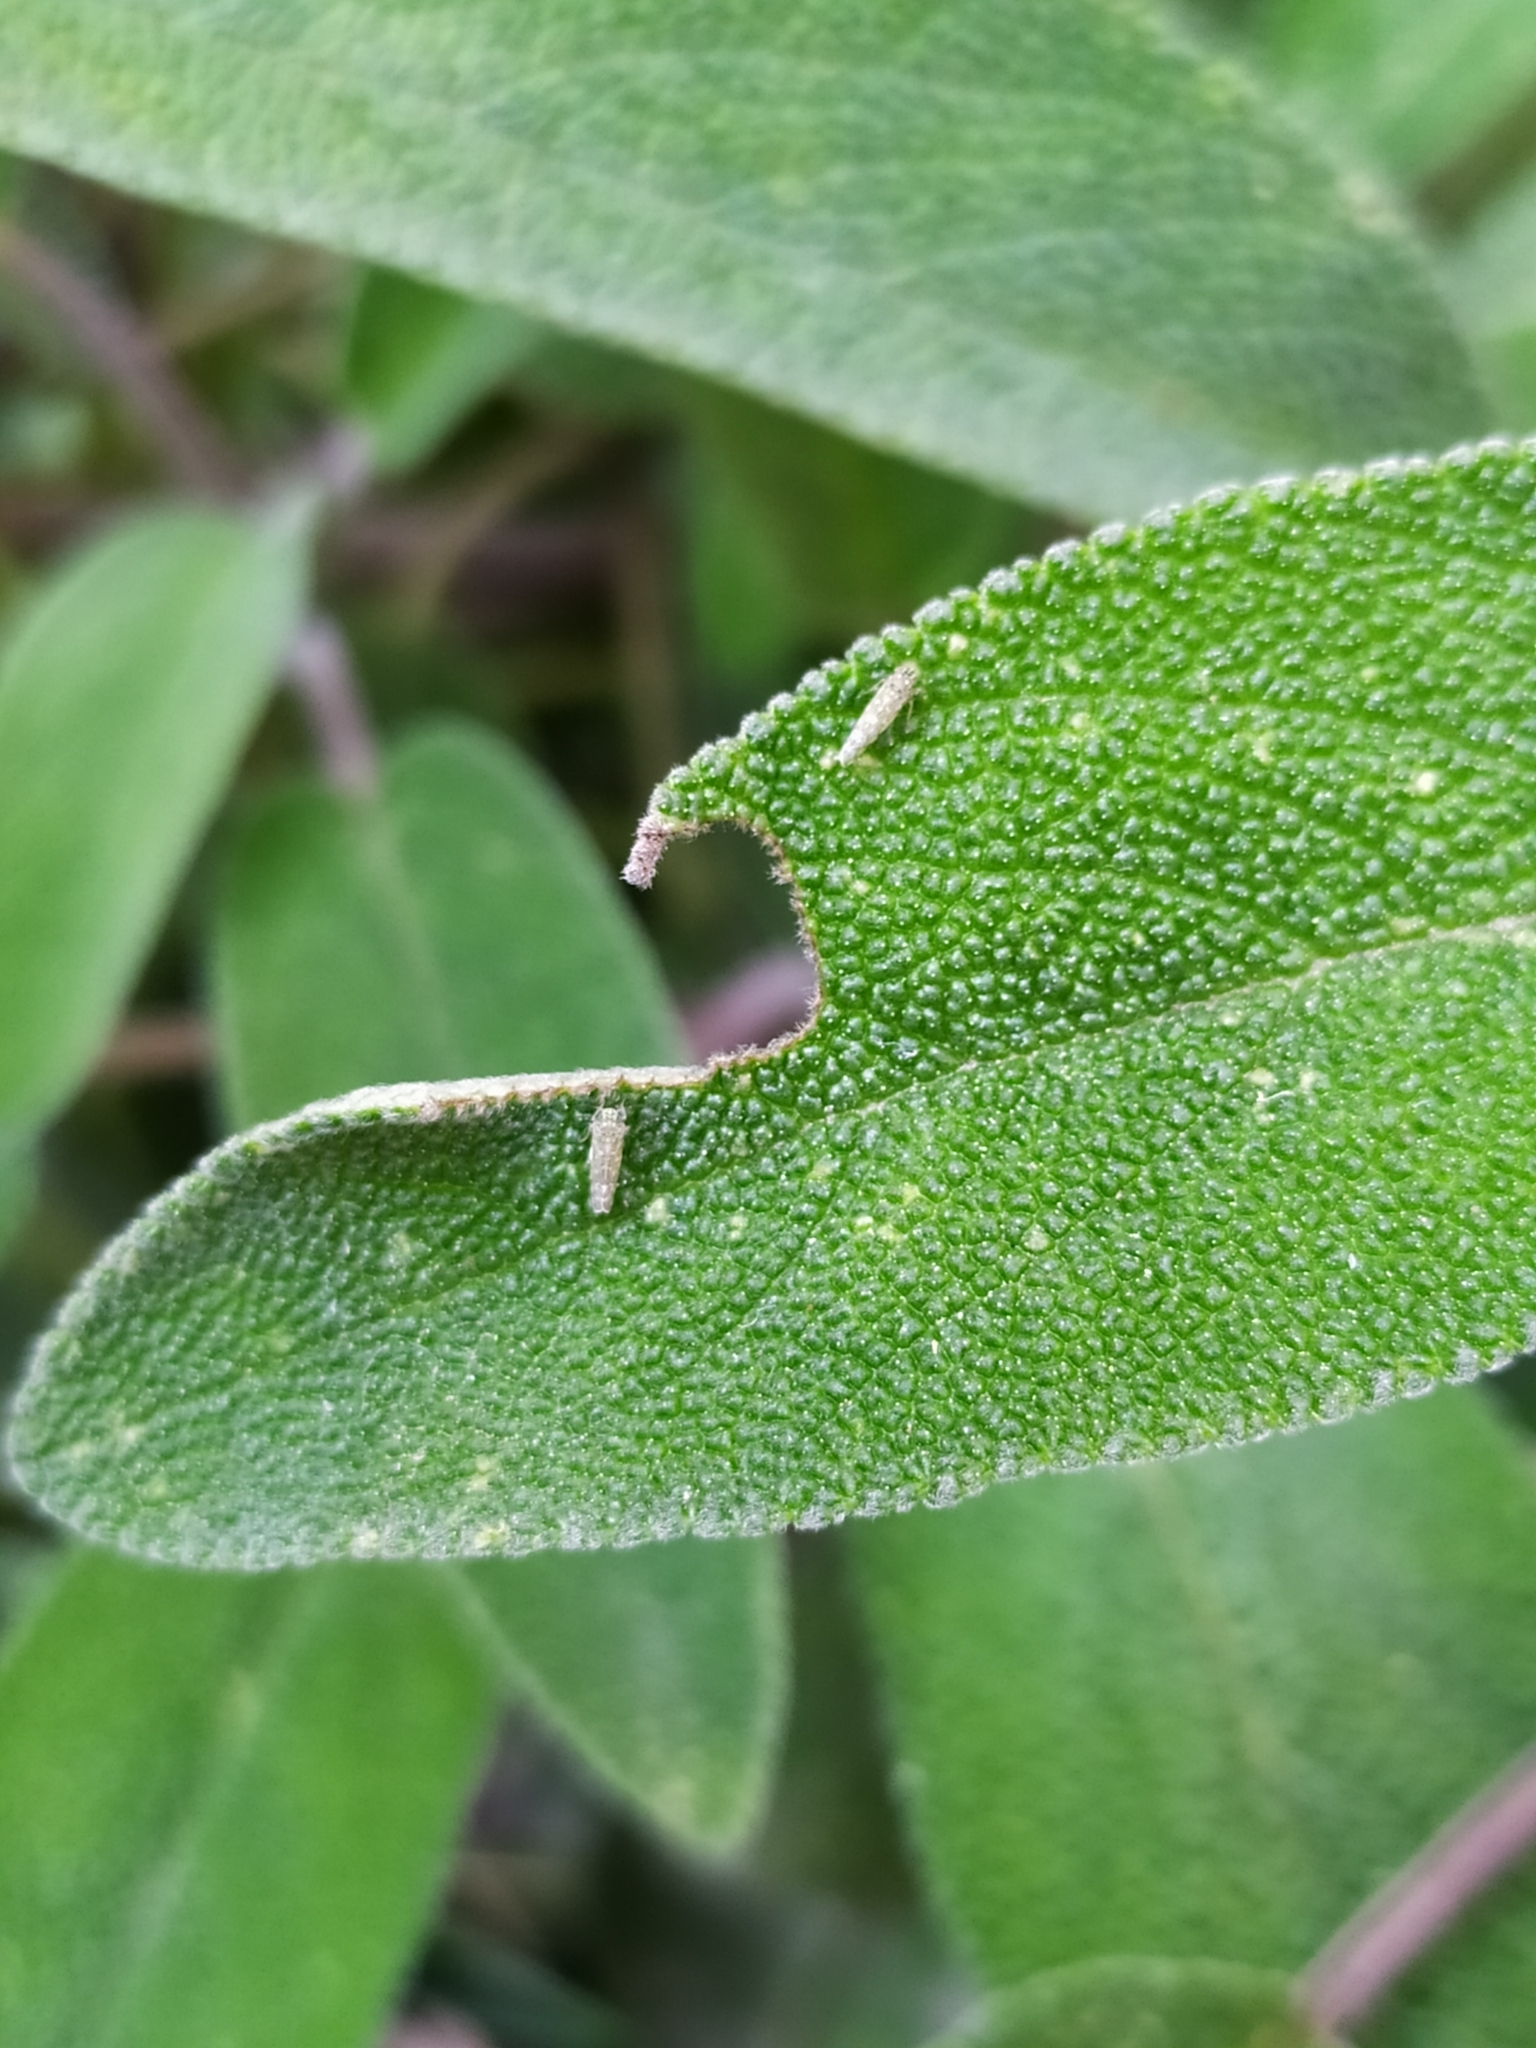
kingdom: Animalia
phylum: Arthropoda
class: Insecta
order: Hemiptera
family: Cicadellidae
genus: Eupteryx
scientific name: Eupteryx decemnotata
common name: Ligurian leafhopper
